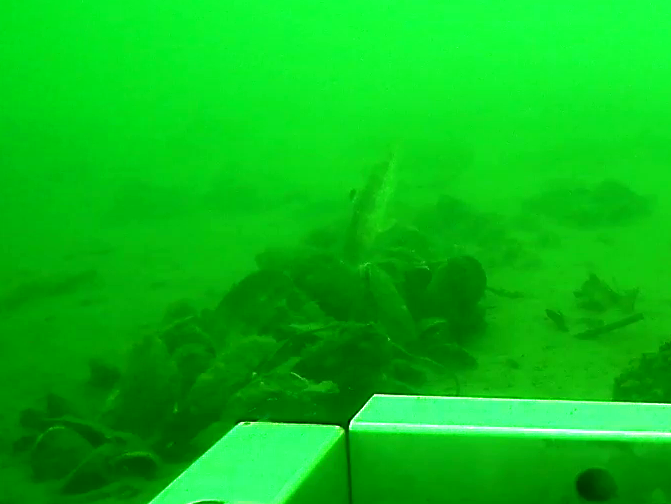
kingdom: Animalia
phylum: Chordata
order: Perciformes
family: Mullidae
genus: Mullus
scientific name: Mullus surmuletus
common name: Red mullet
